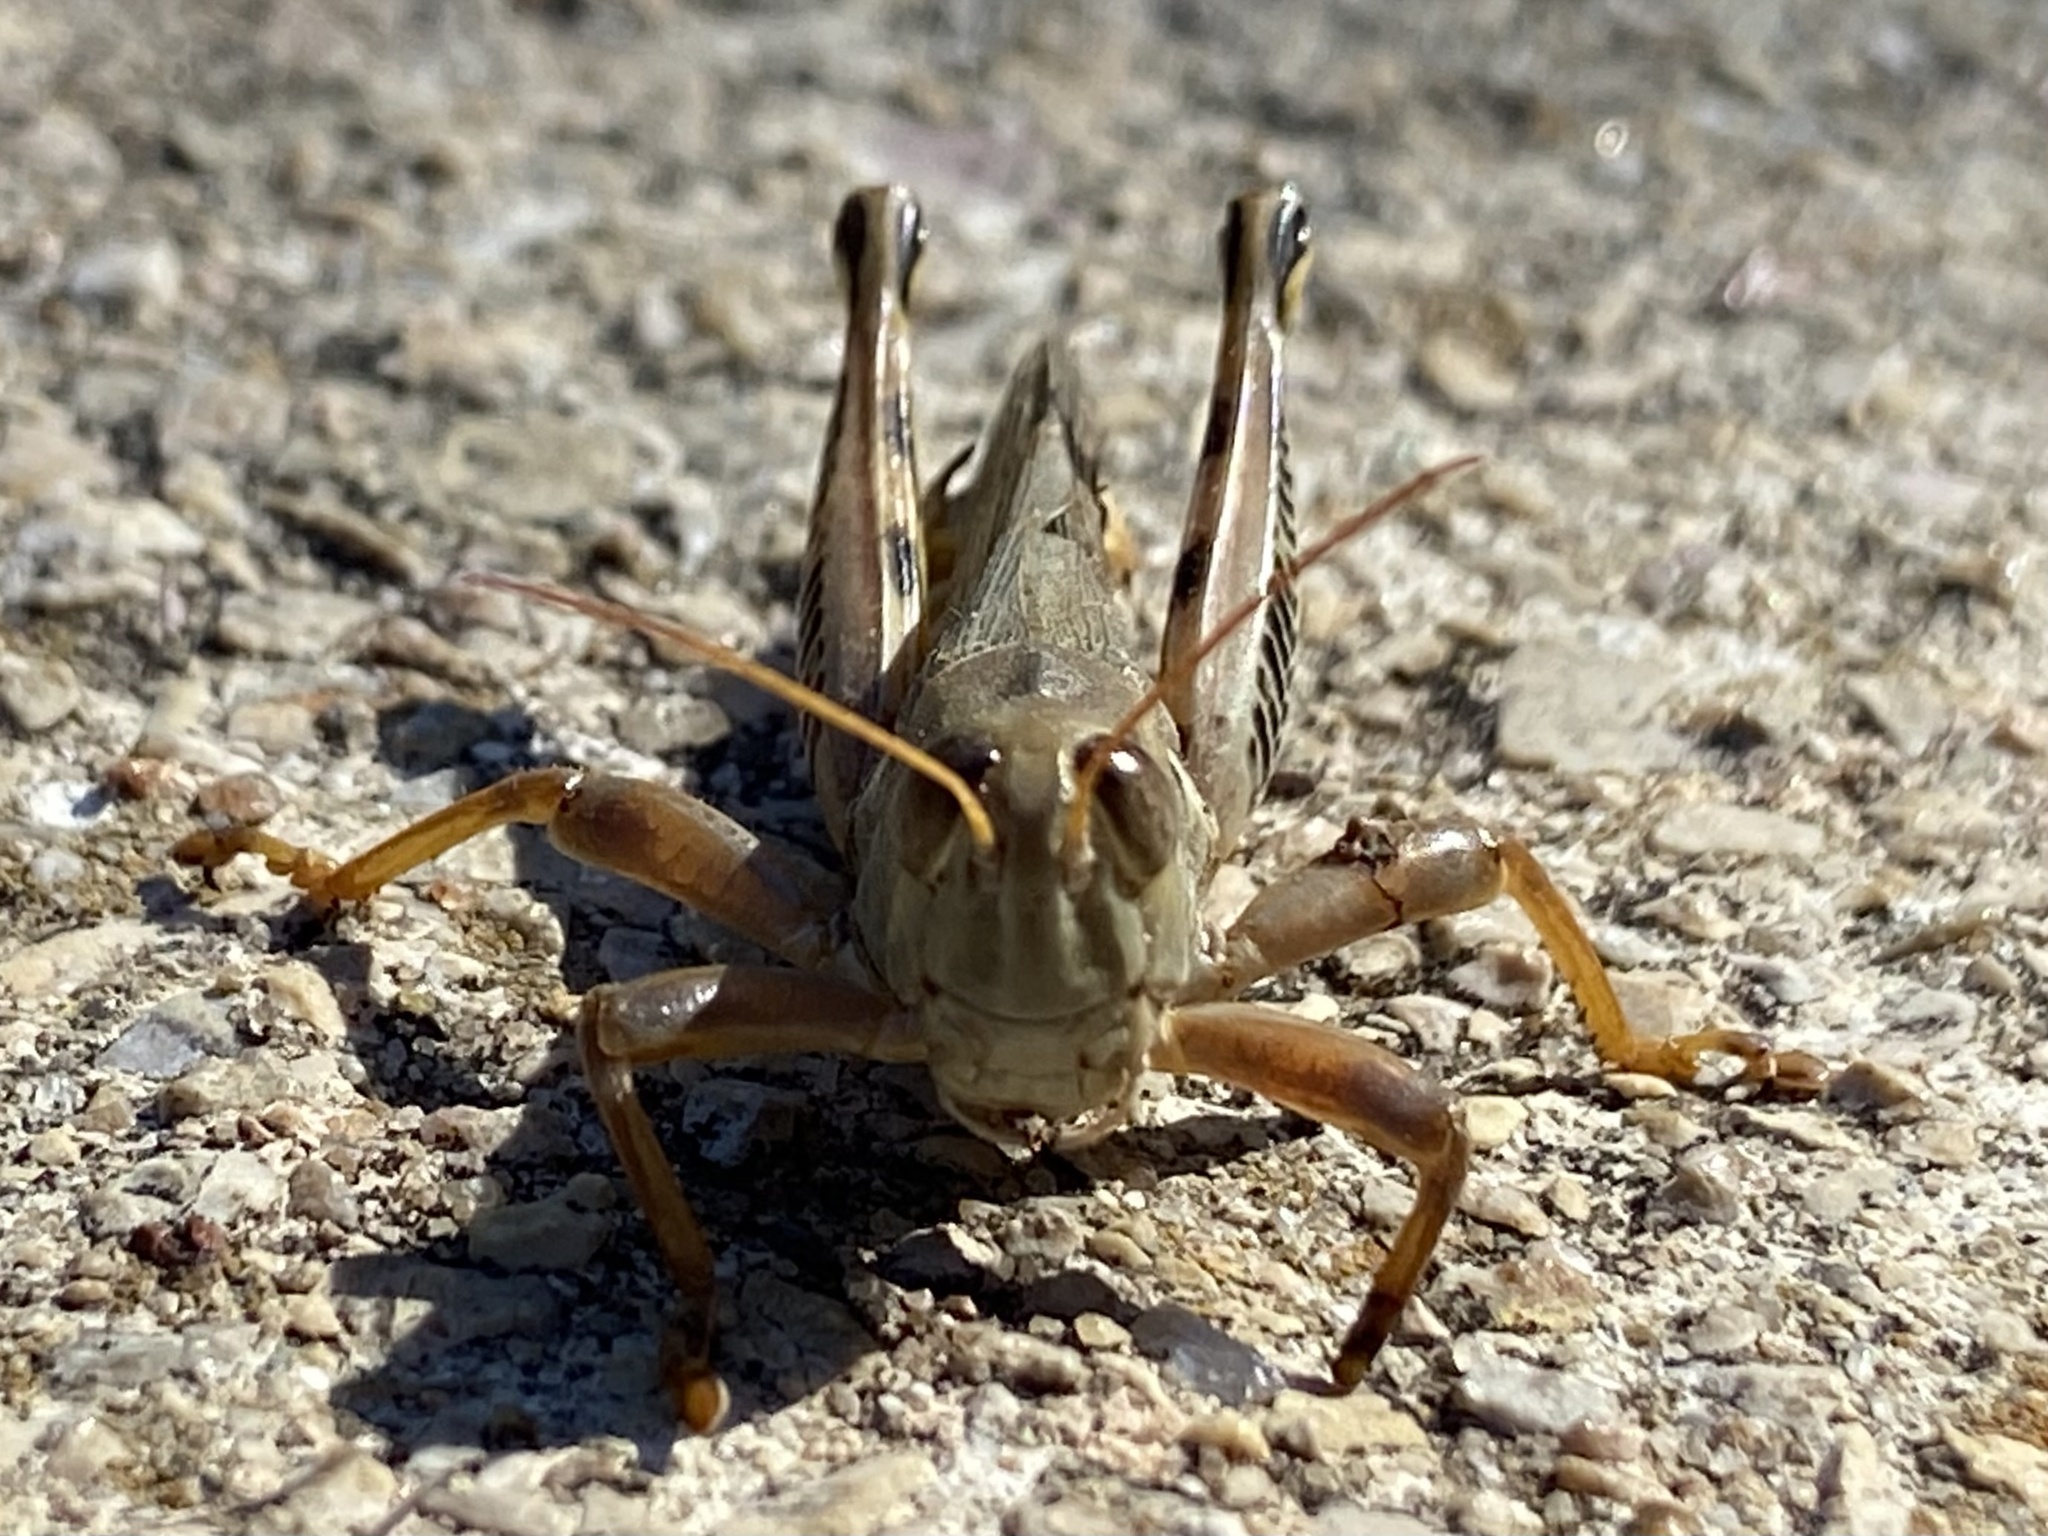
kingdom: Animalia
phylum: Arthropoda
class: Insecta
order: Orthoptera
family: Acrididae
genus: Melanoplus
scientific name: Melanoplus differentialis
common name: Differential grasshopper
